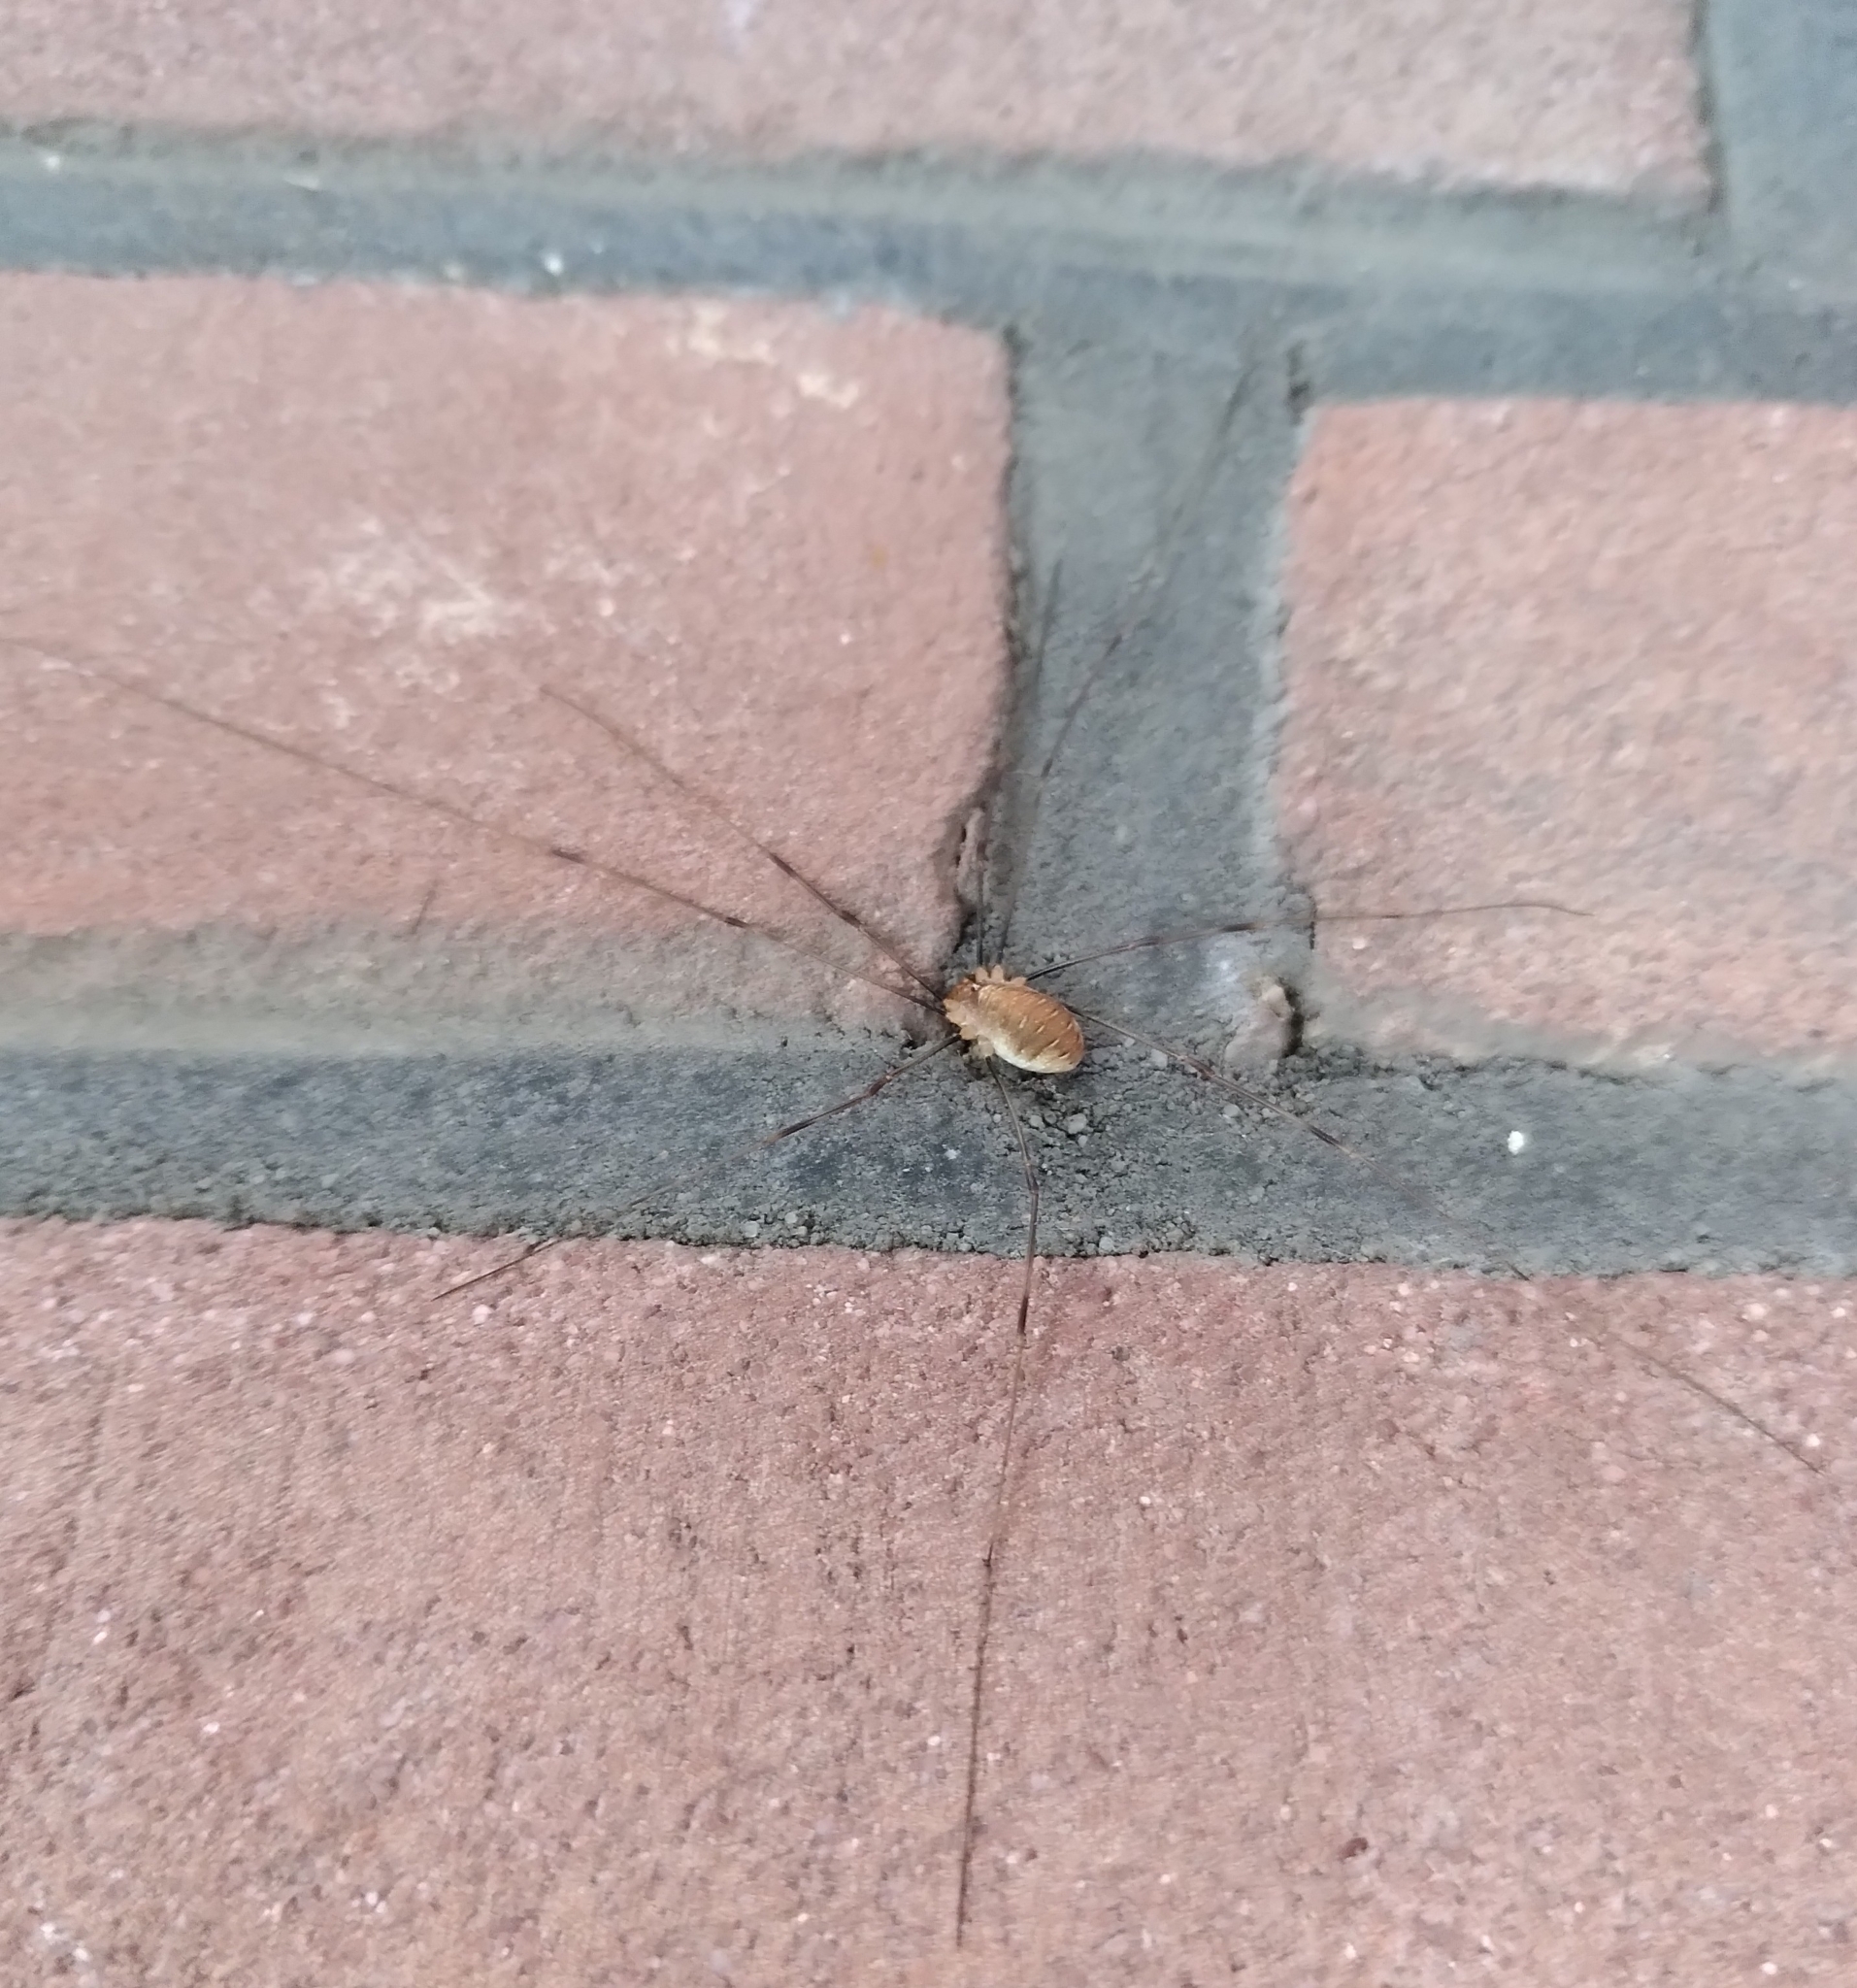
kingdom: Animalia
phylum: Arthropoda
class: Arachnida
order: Opiliones
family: Phalangiidae
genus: Opilio
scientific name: Opilio canestrinii
